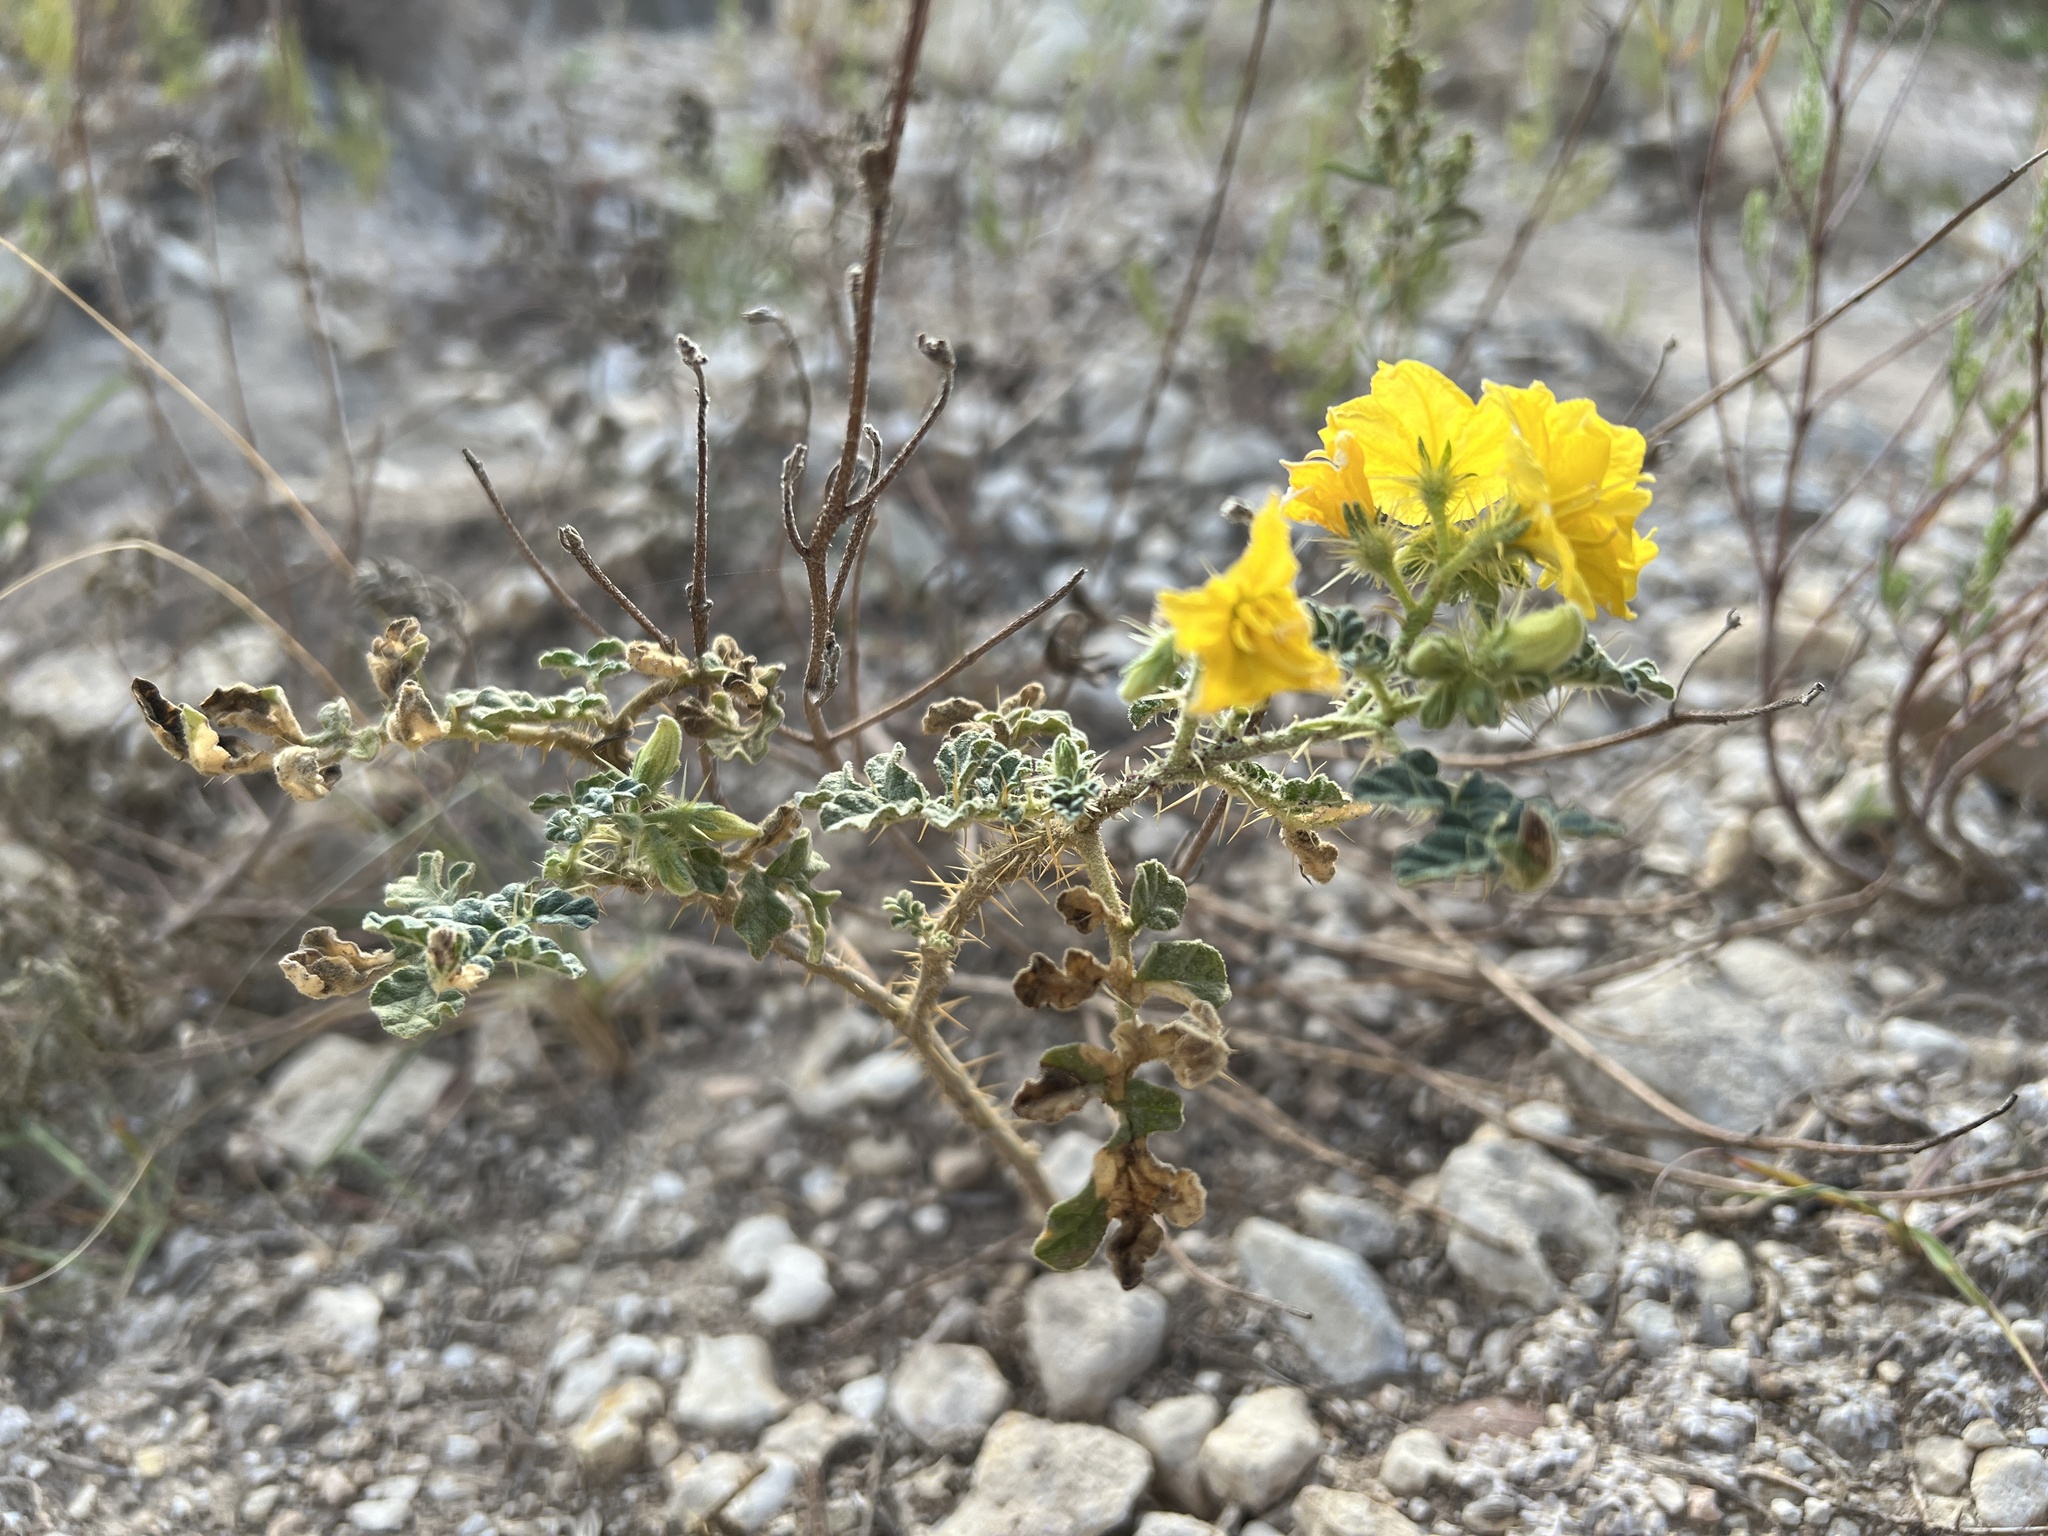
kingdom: Plantae
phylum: Tracheophyta
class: Magnoliopsida
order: Solanales
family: Solanaceae
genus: Solanum
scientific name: Solanum angustifolium
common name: Buffalobur nightshade
